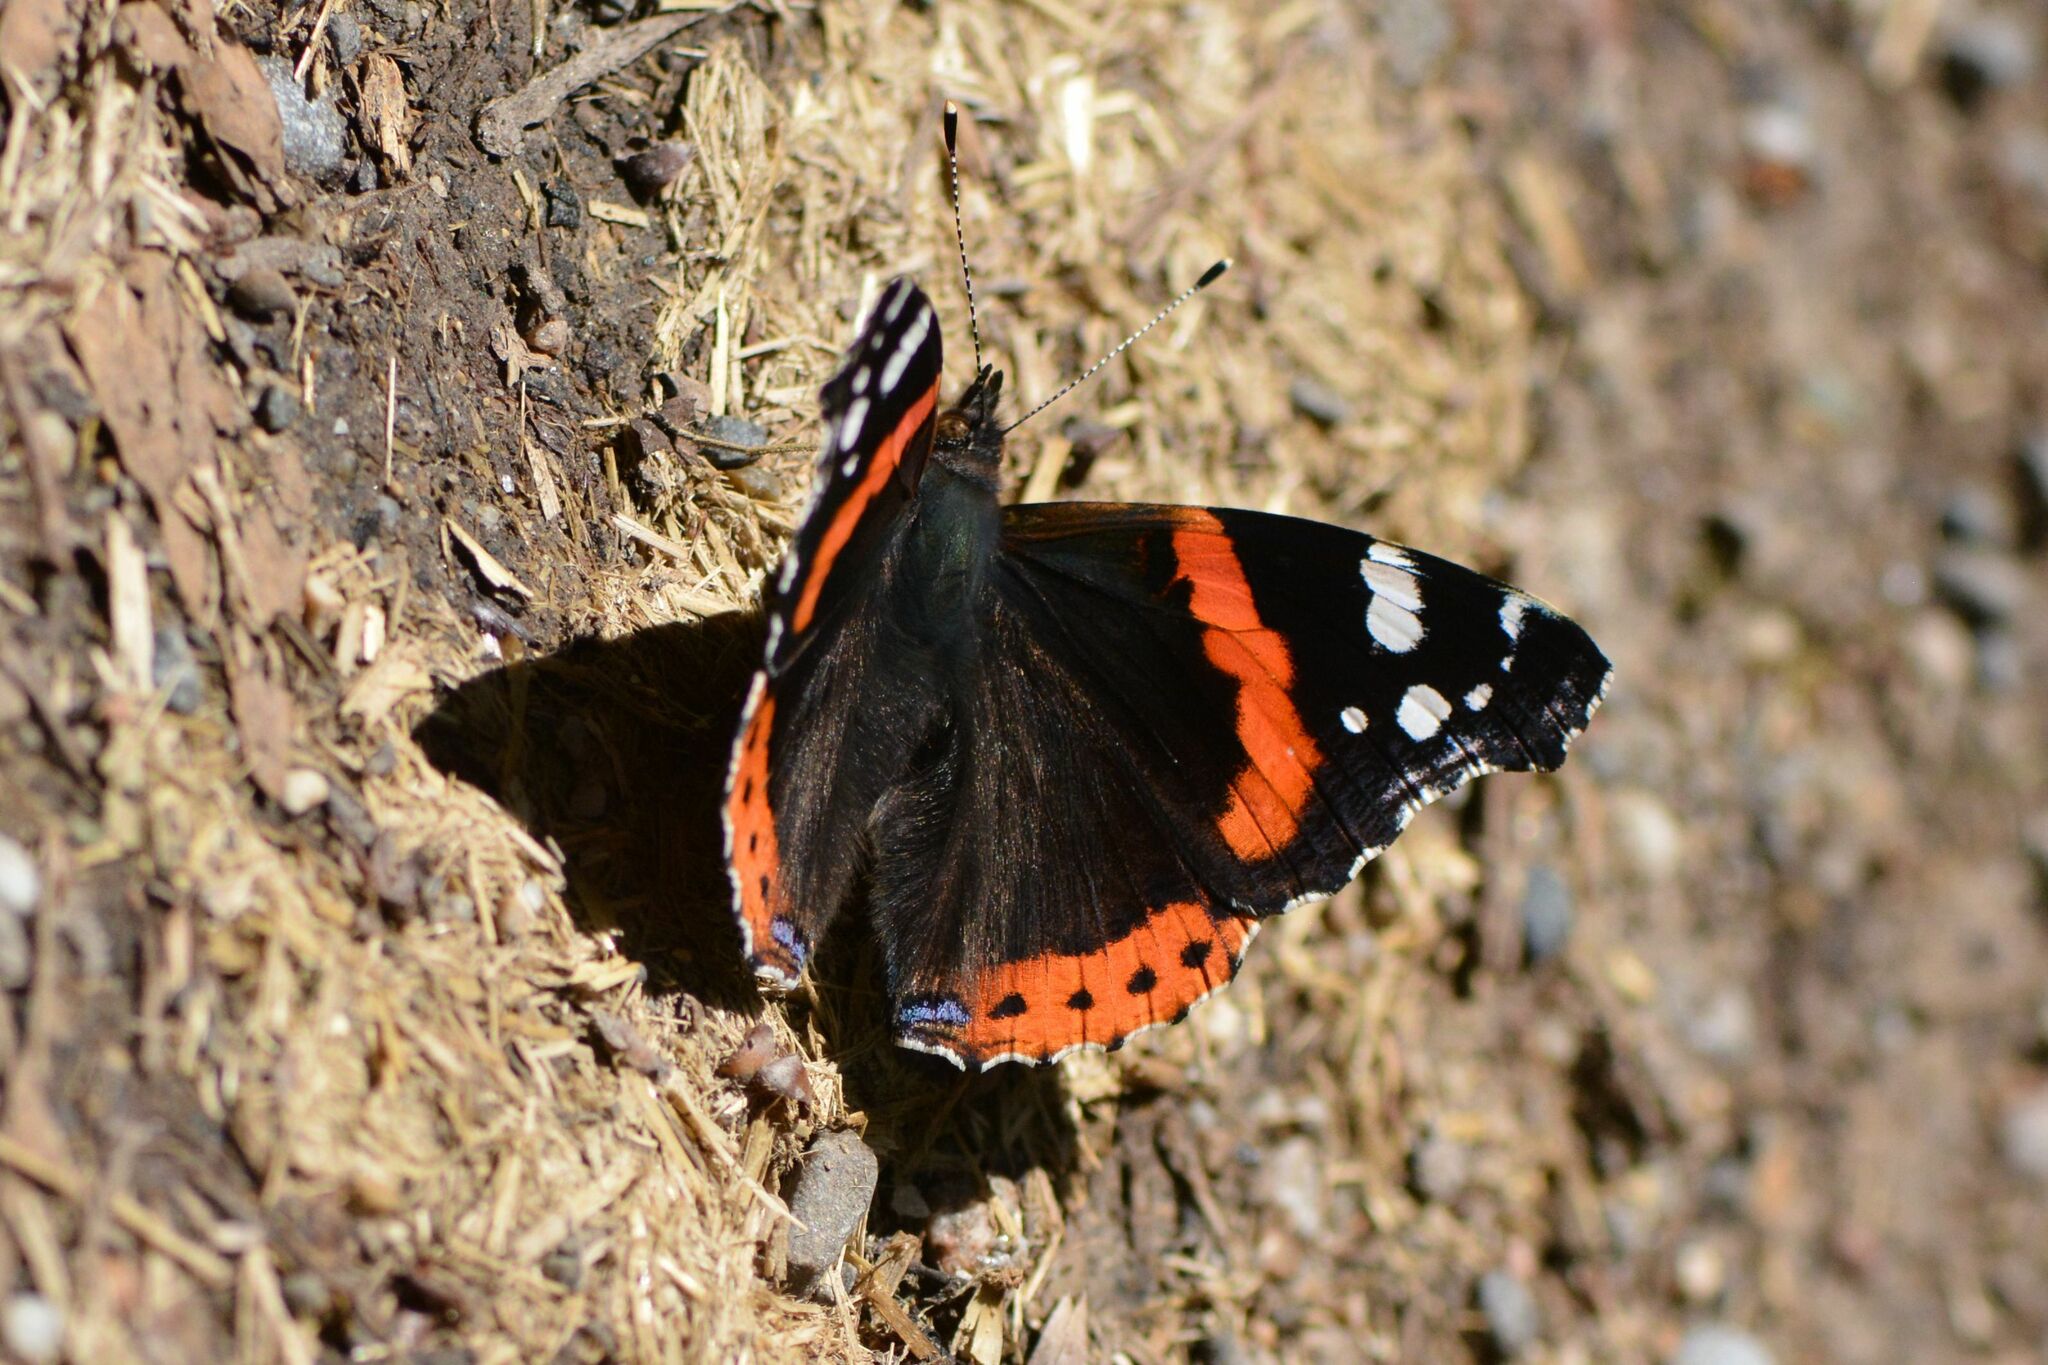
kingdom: Animalia
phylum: Arthropoda
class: Insecta
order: Lepidoptera
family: Nymphalidae
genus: Vanessa
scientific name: Vanessa atalanta
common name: Red admiral
